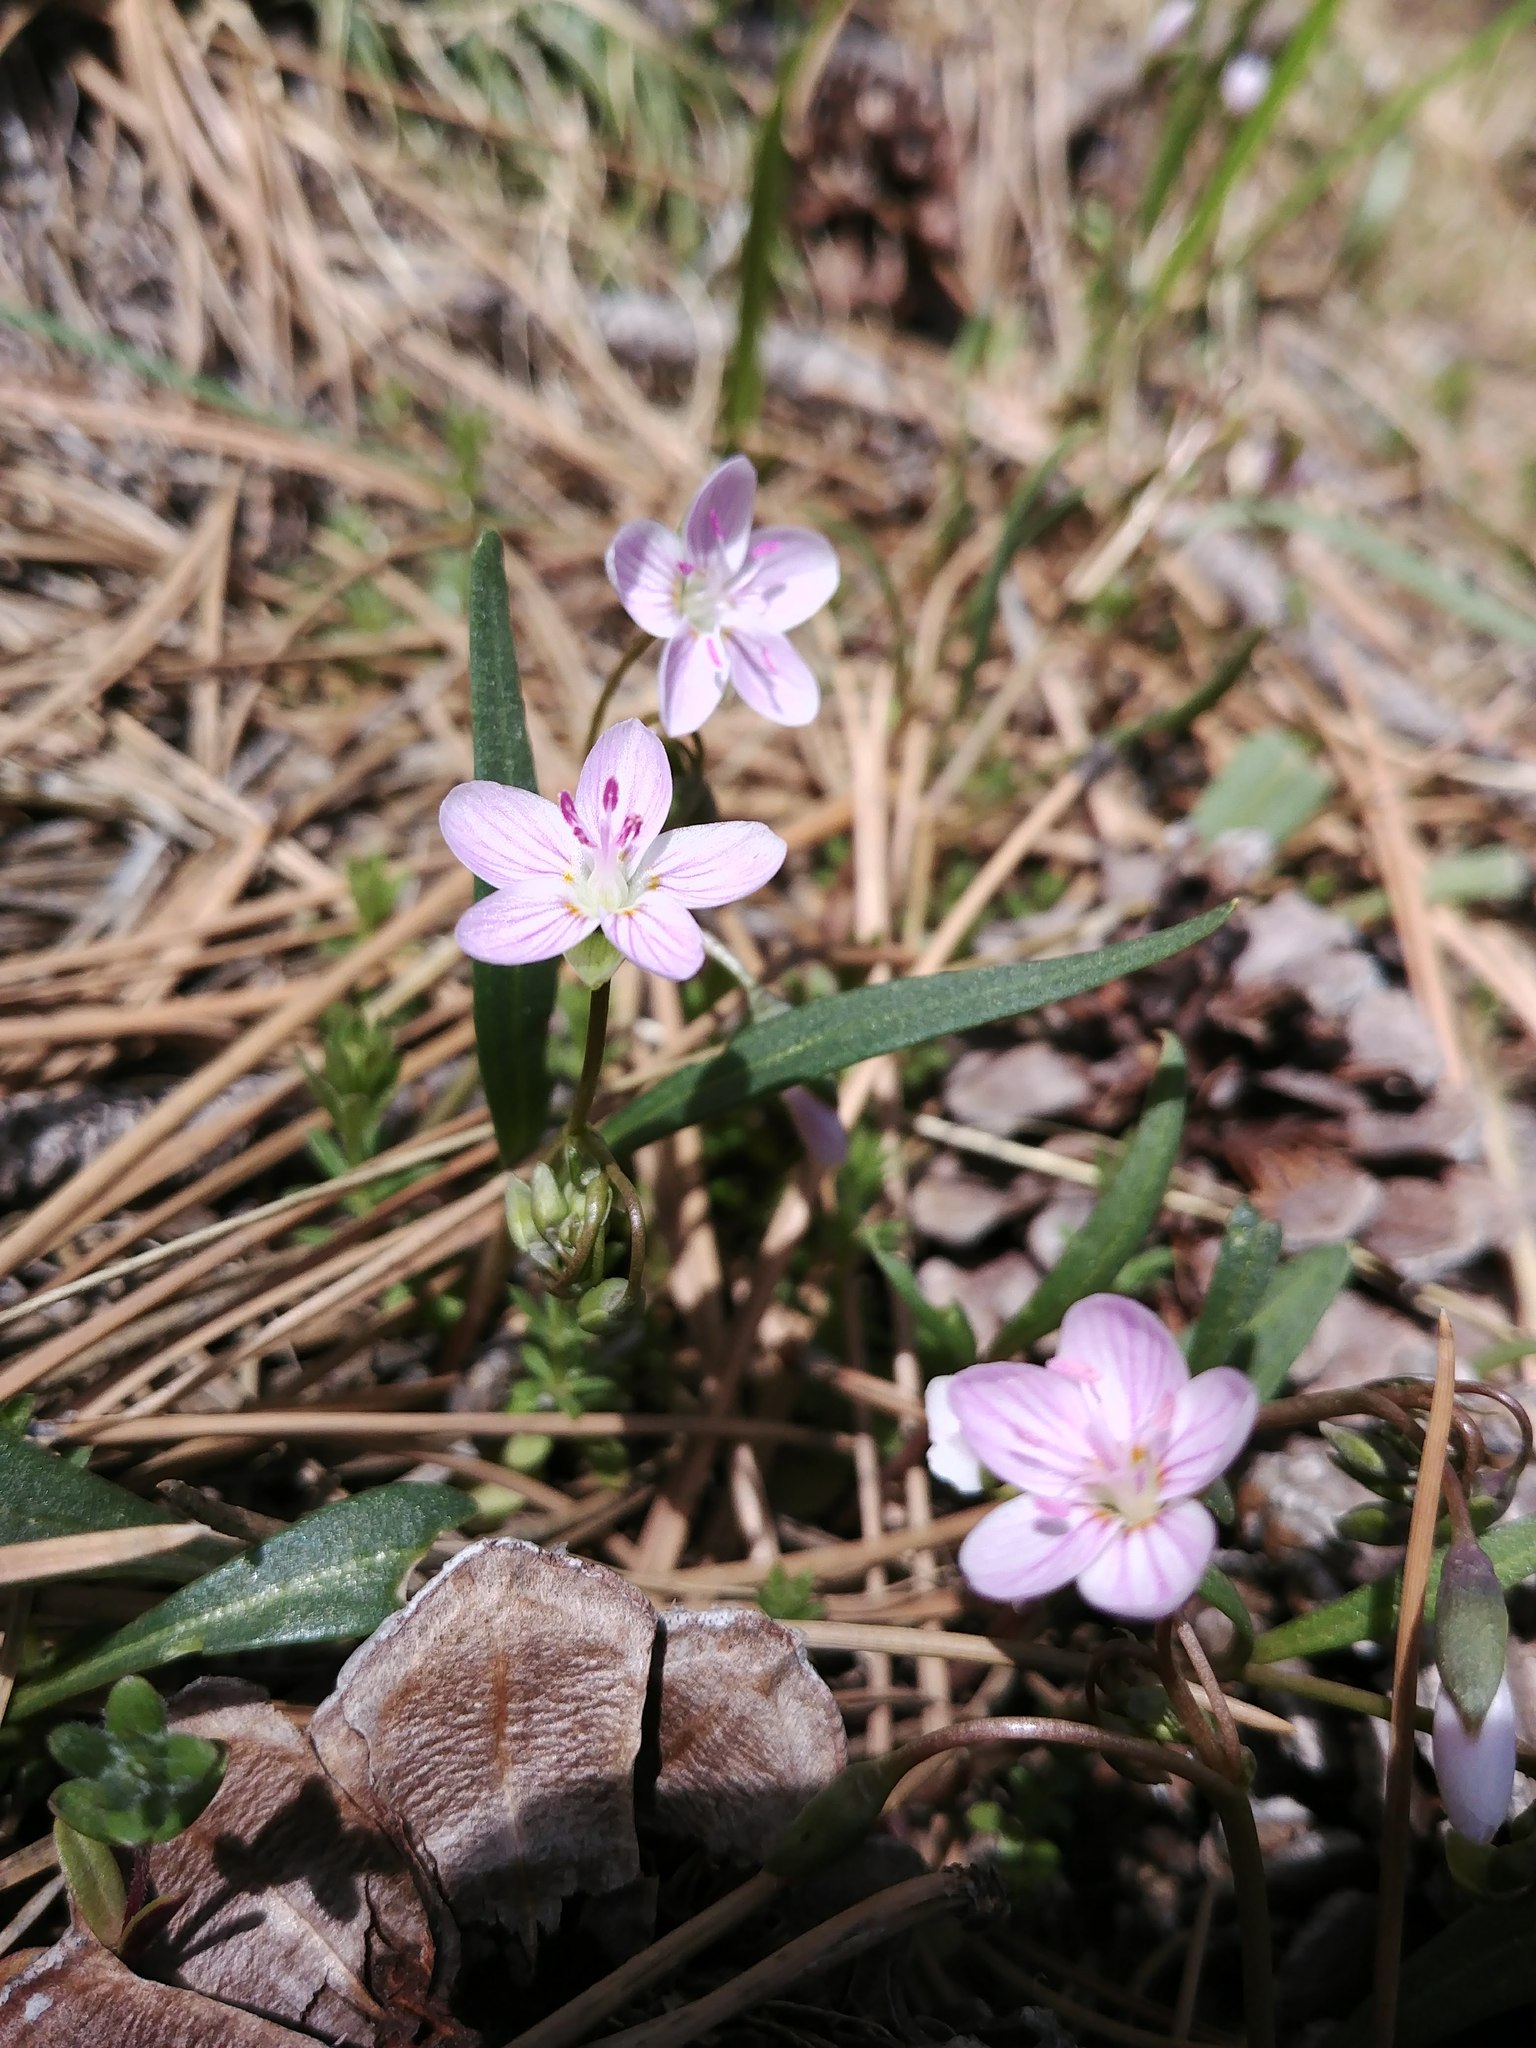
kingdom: Plantae
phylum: Tracheophyta
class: Magnoliopsida
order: Caryophyllales
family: Montiaceae
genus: Claytonia
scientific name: Claytonia rosea
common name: Rocky mountain spring-beauty
